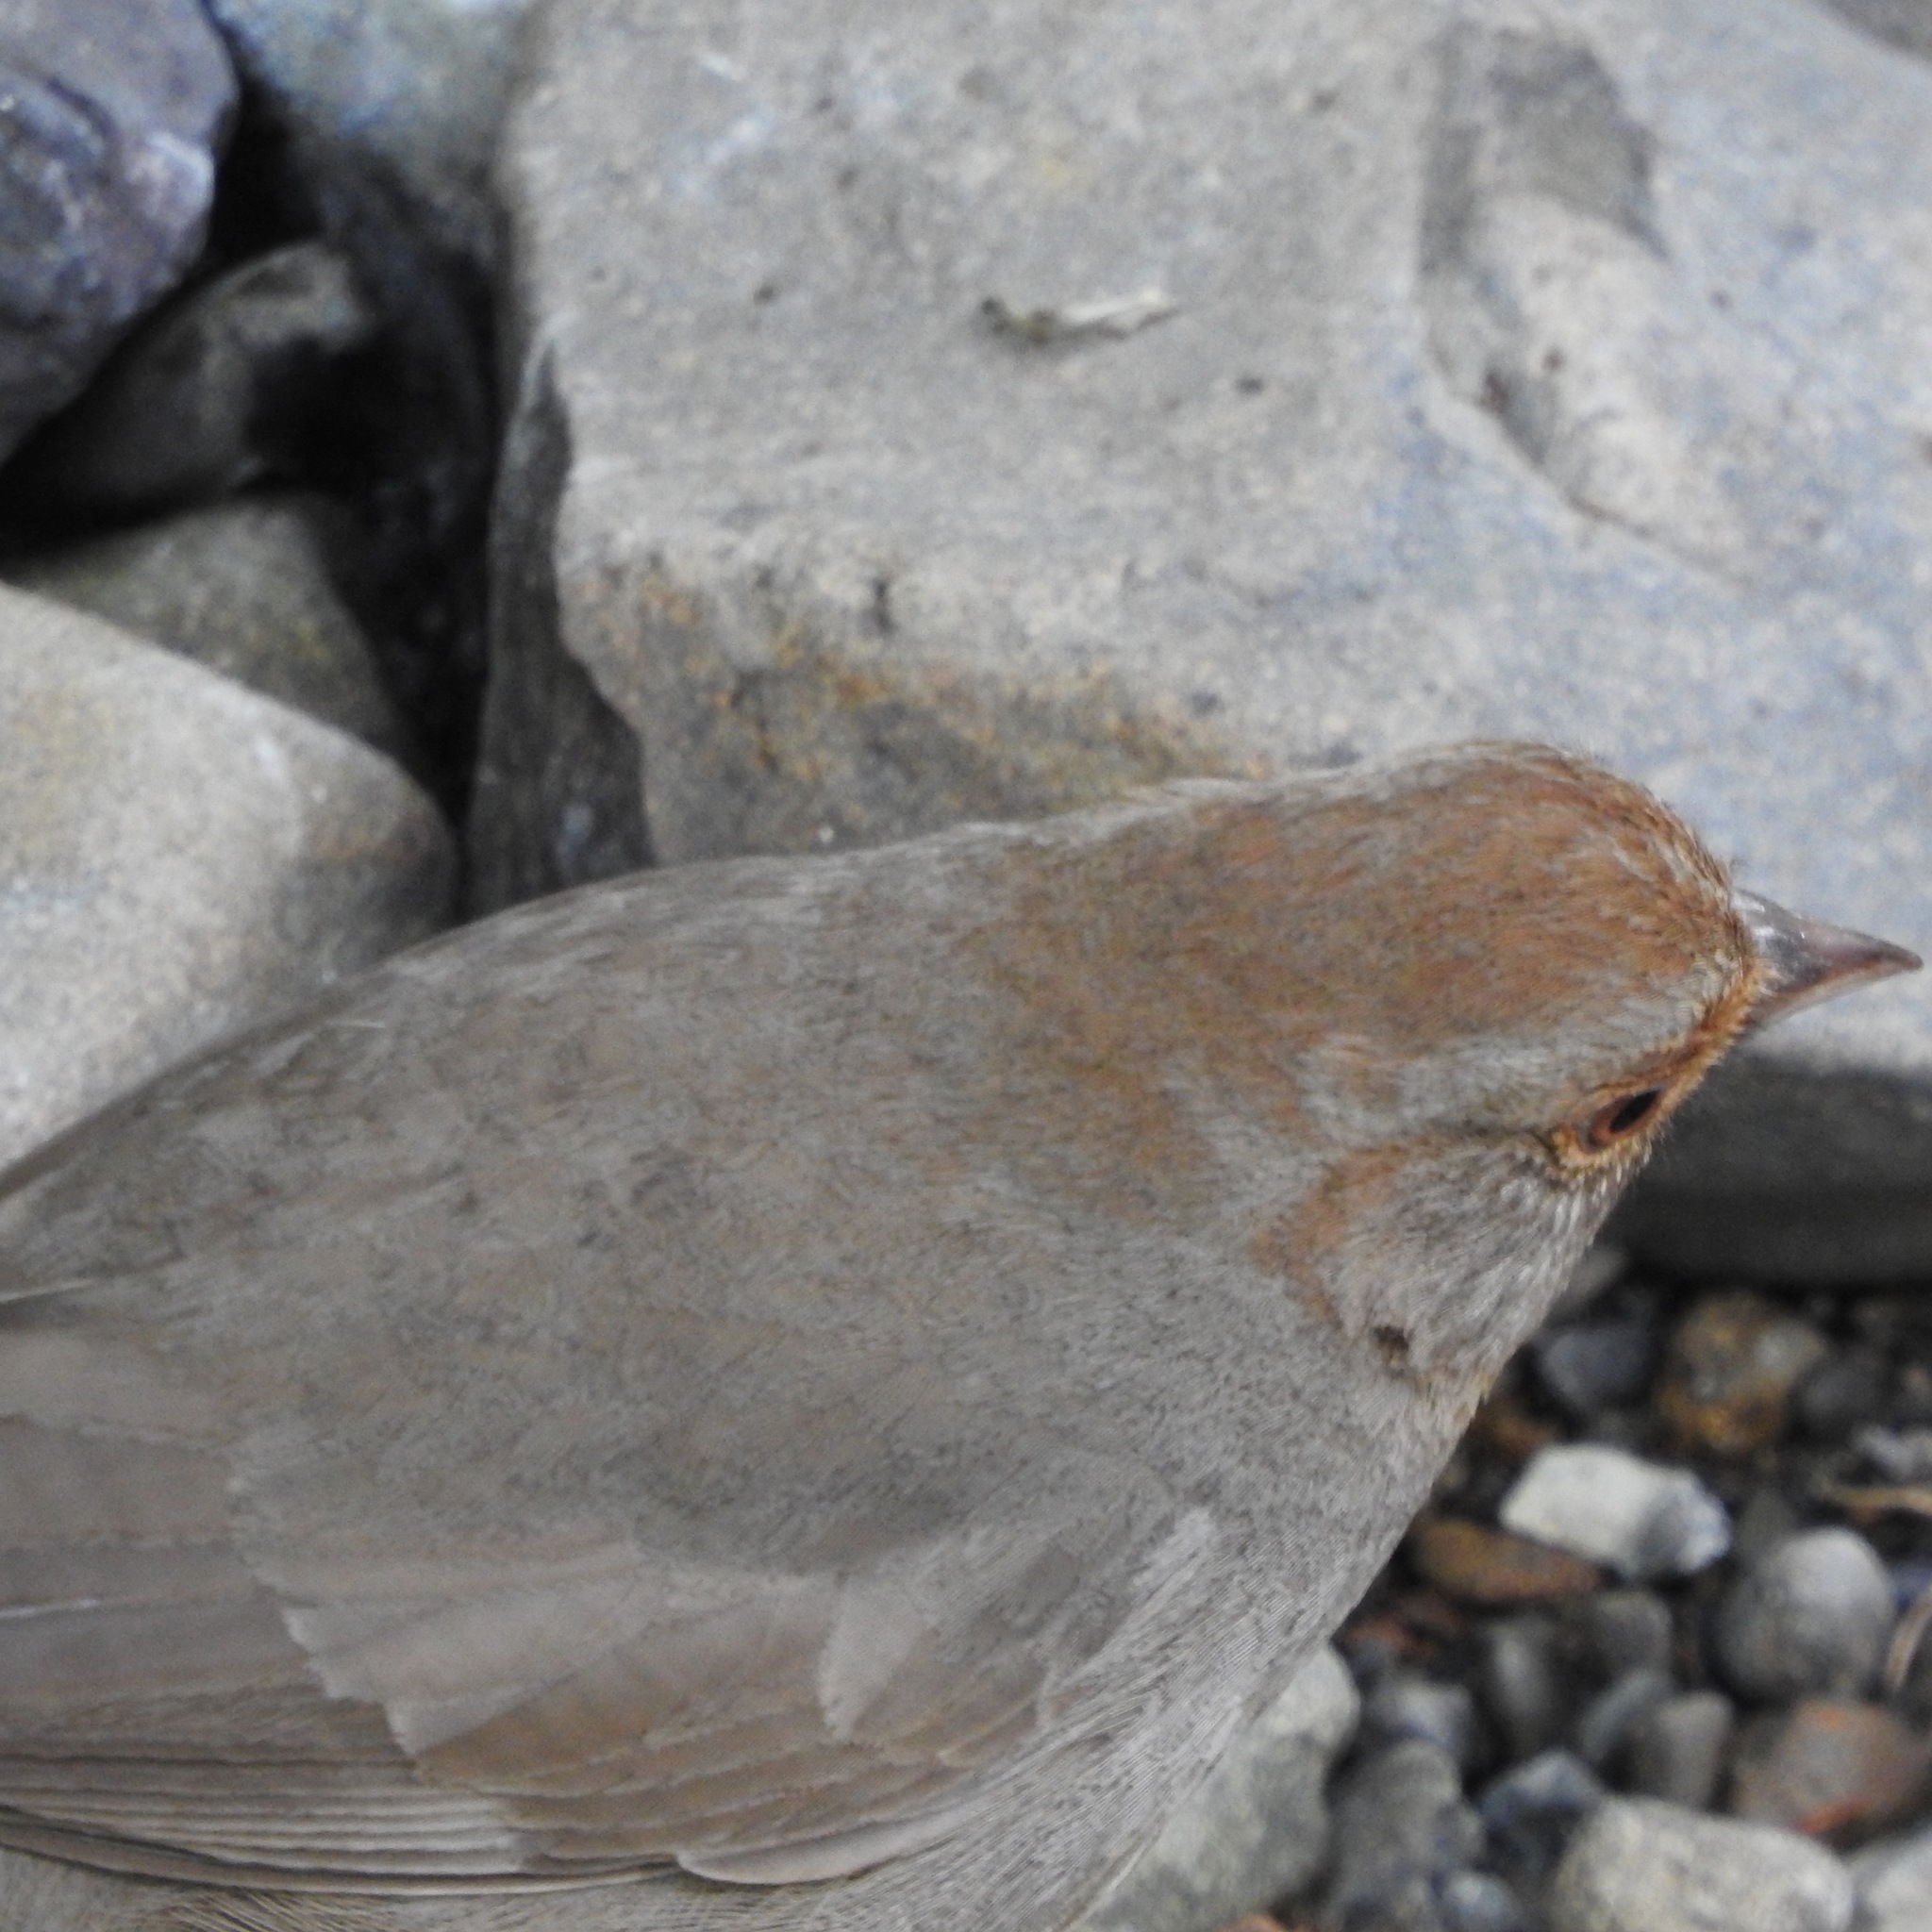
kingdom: Animalia
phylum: Chordata
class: Aves
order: Passeriformes
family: Passerellidae
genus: Melozone
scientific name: Melozone crissalis
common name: California towhee
